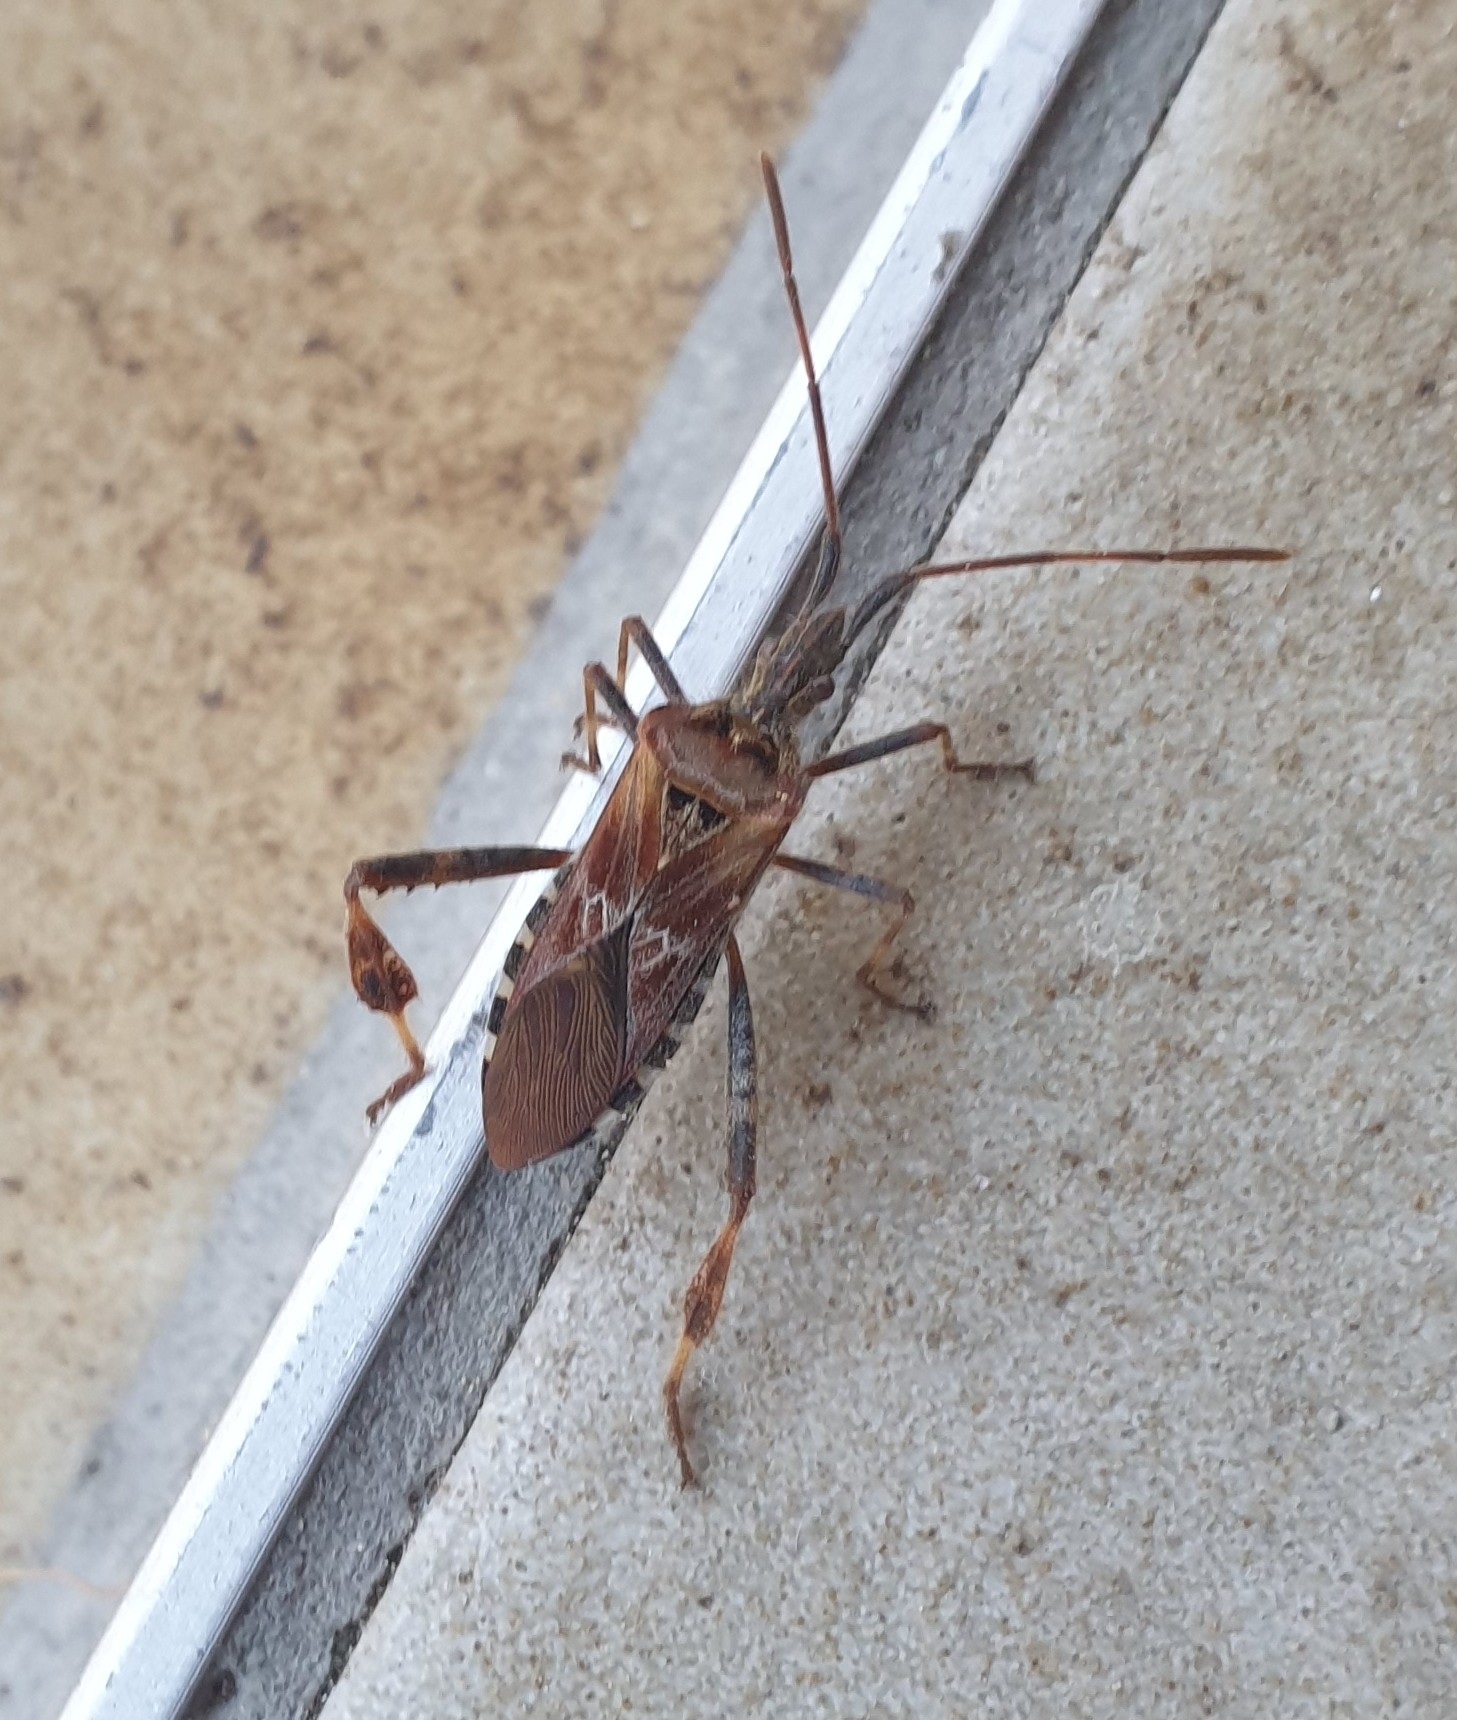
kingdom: Animalia
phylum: Arthropoda
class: Insecta
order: Hemiptera
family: Coreidae
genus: Leptoglossus
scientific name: Leptoglossus occidentalis
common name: Western conifer-seed bug
